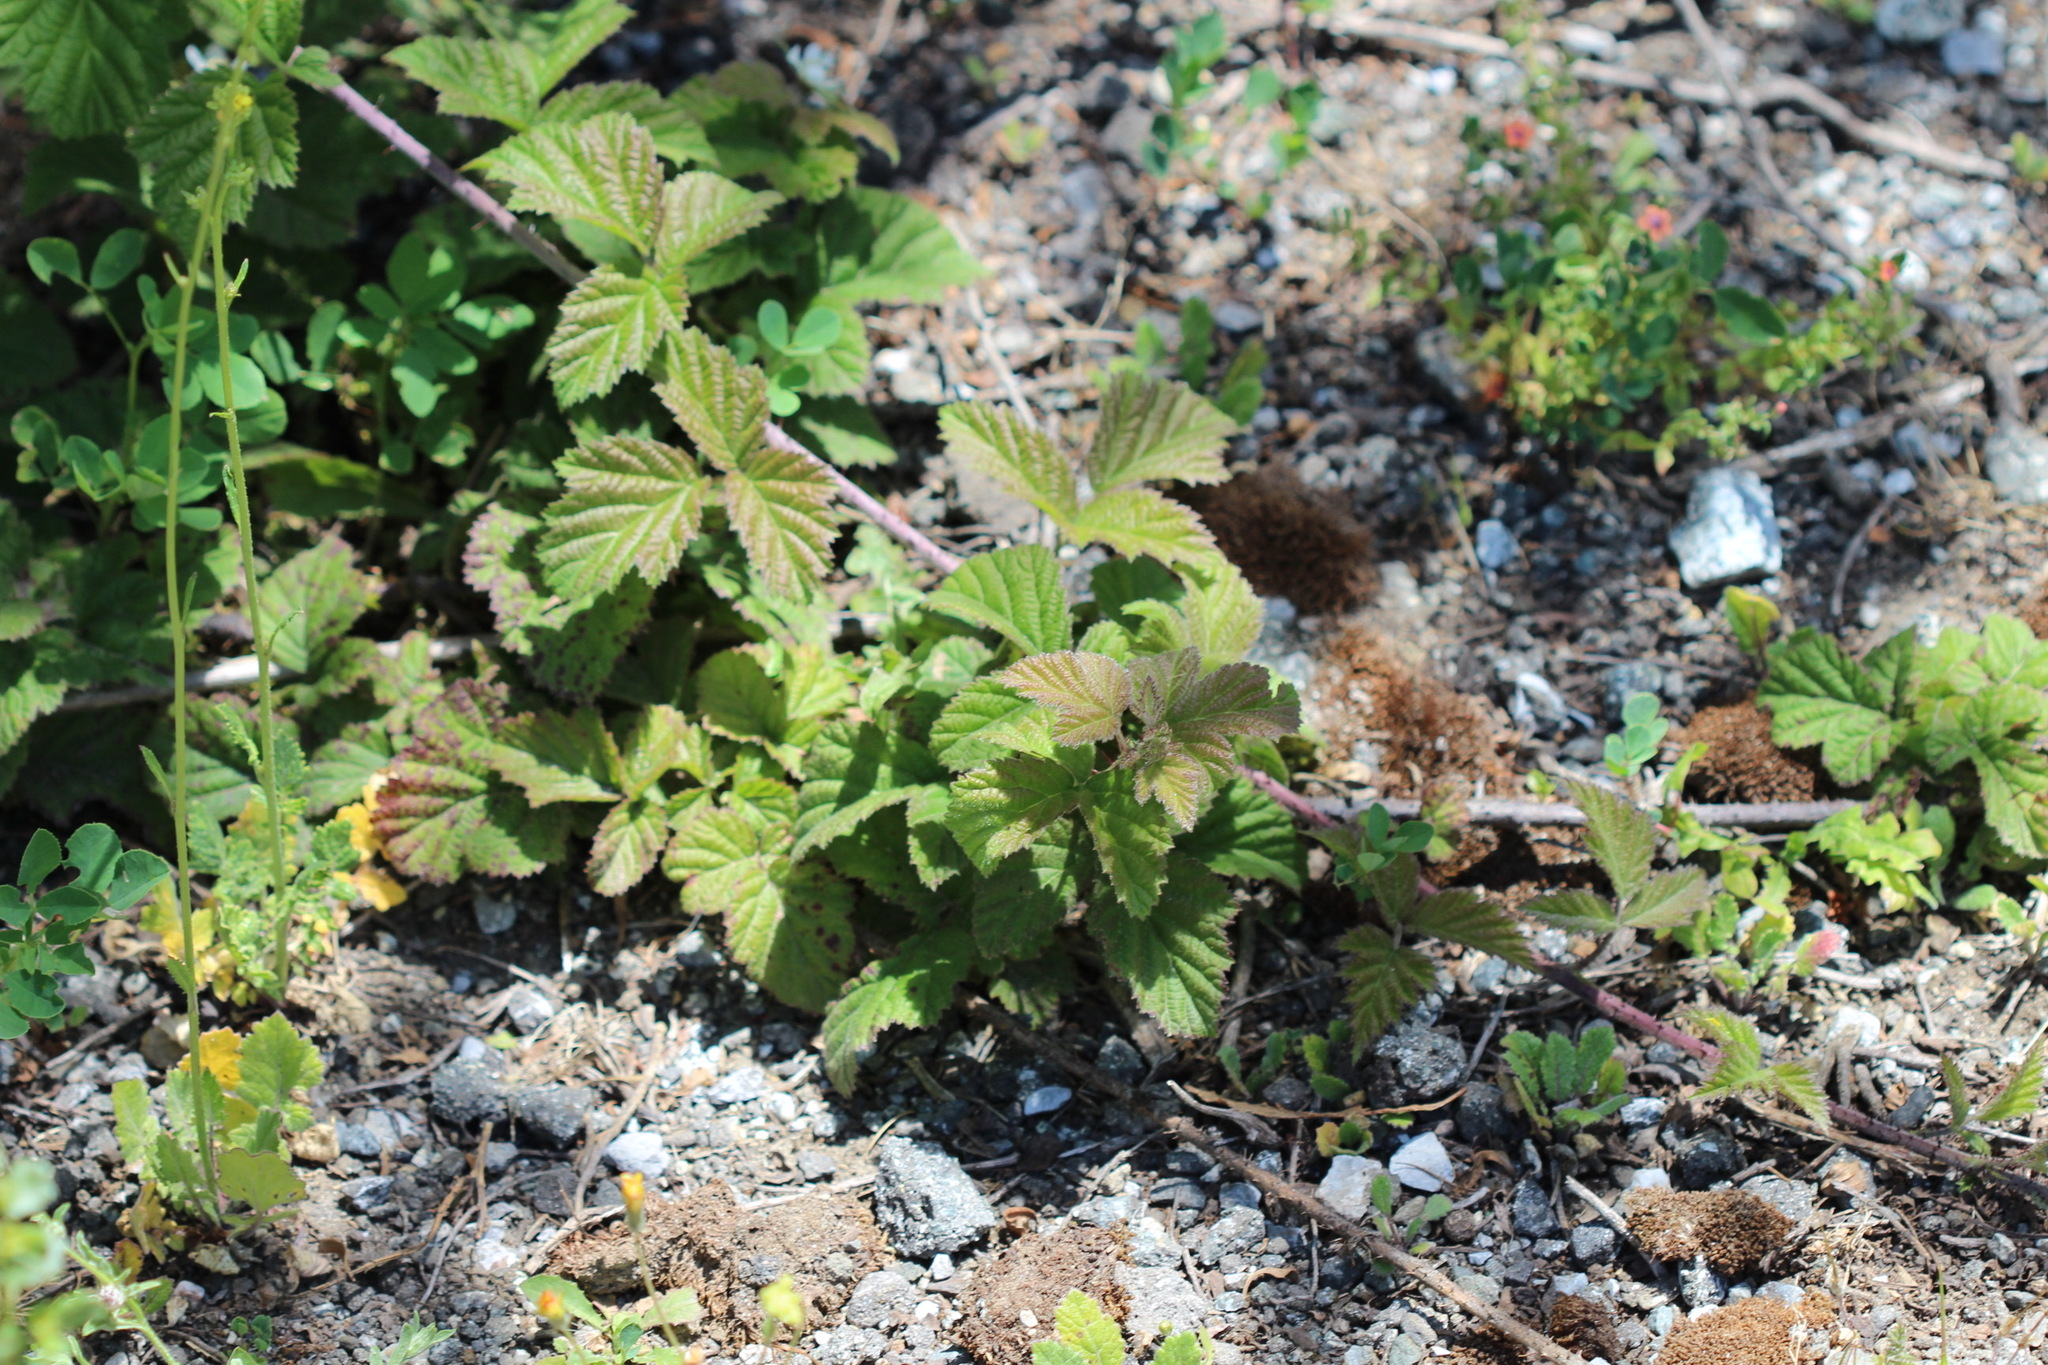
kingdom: Plantae
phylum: Tracheophyta
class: Magnoliopsida
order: Rosales
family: Rosaceae
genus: Rubus
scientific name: Rubus ursinus
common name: Pacific blackberry
